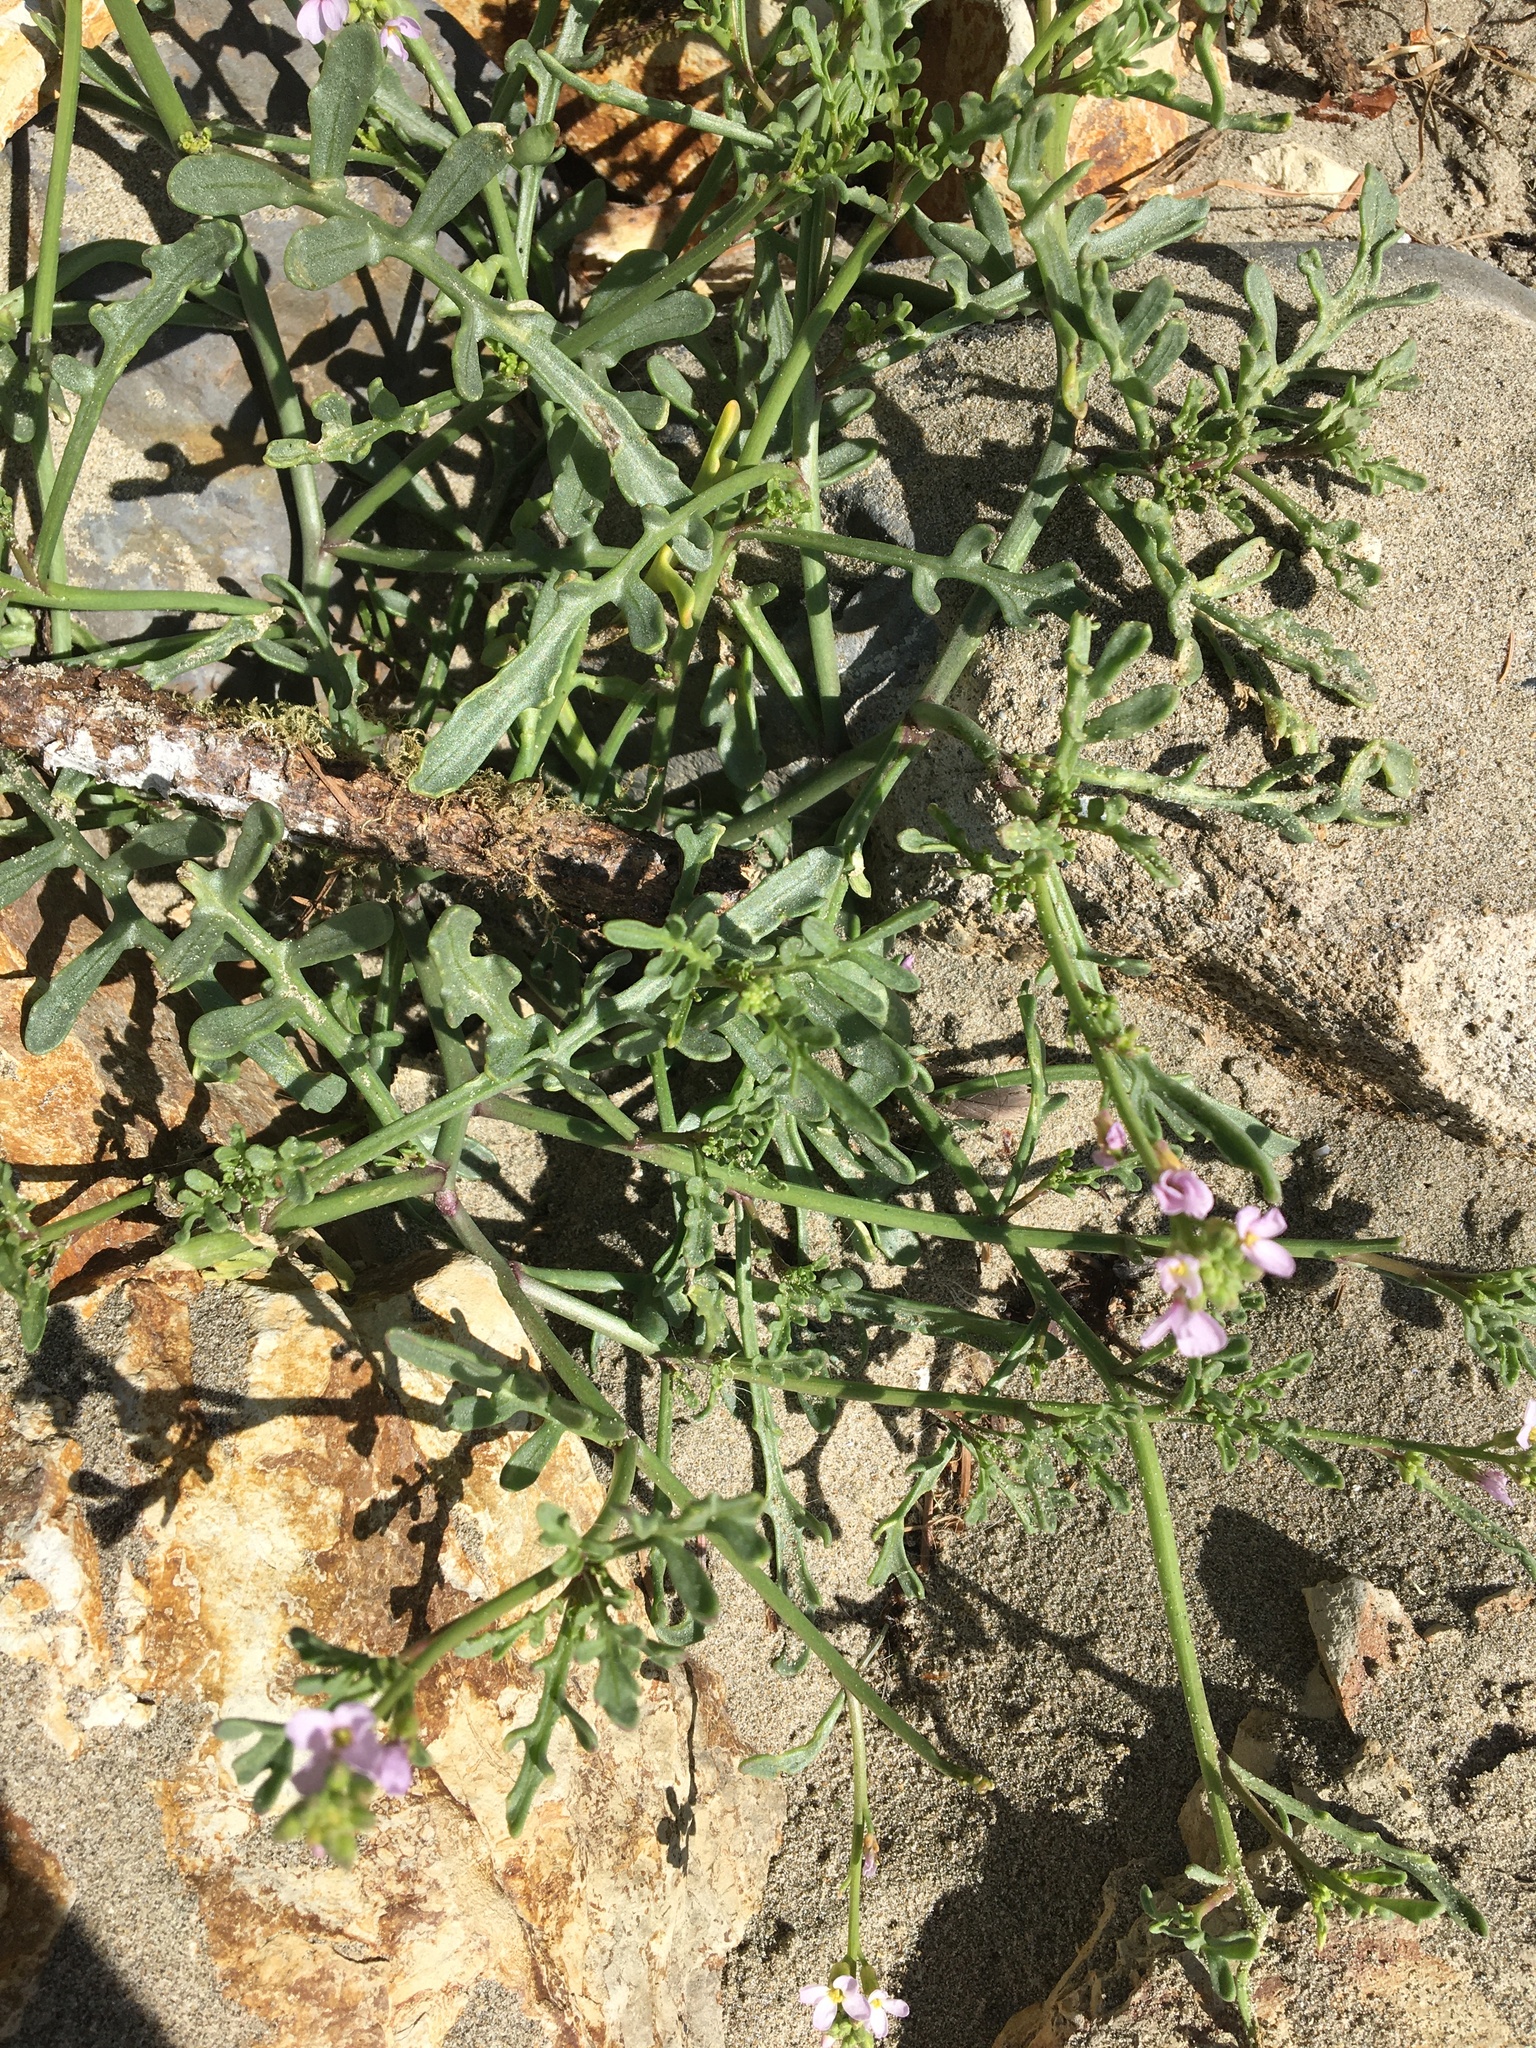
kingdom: Plantae
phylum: Tracheophyta
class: Magnoliopsida
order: Brassicales
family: Brassicaceae
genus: Cakile
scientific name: Cakile maritima
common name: Sea rocket
